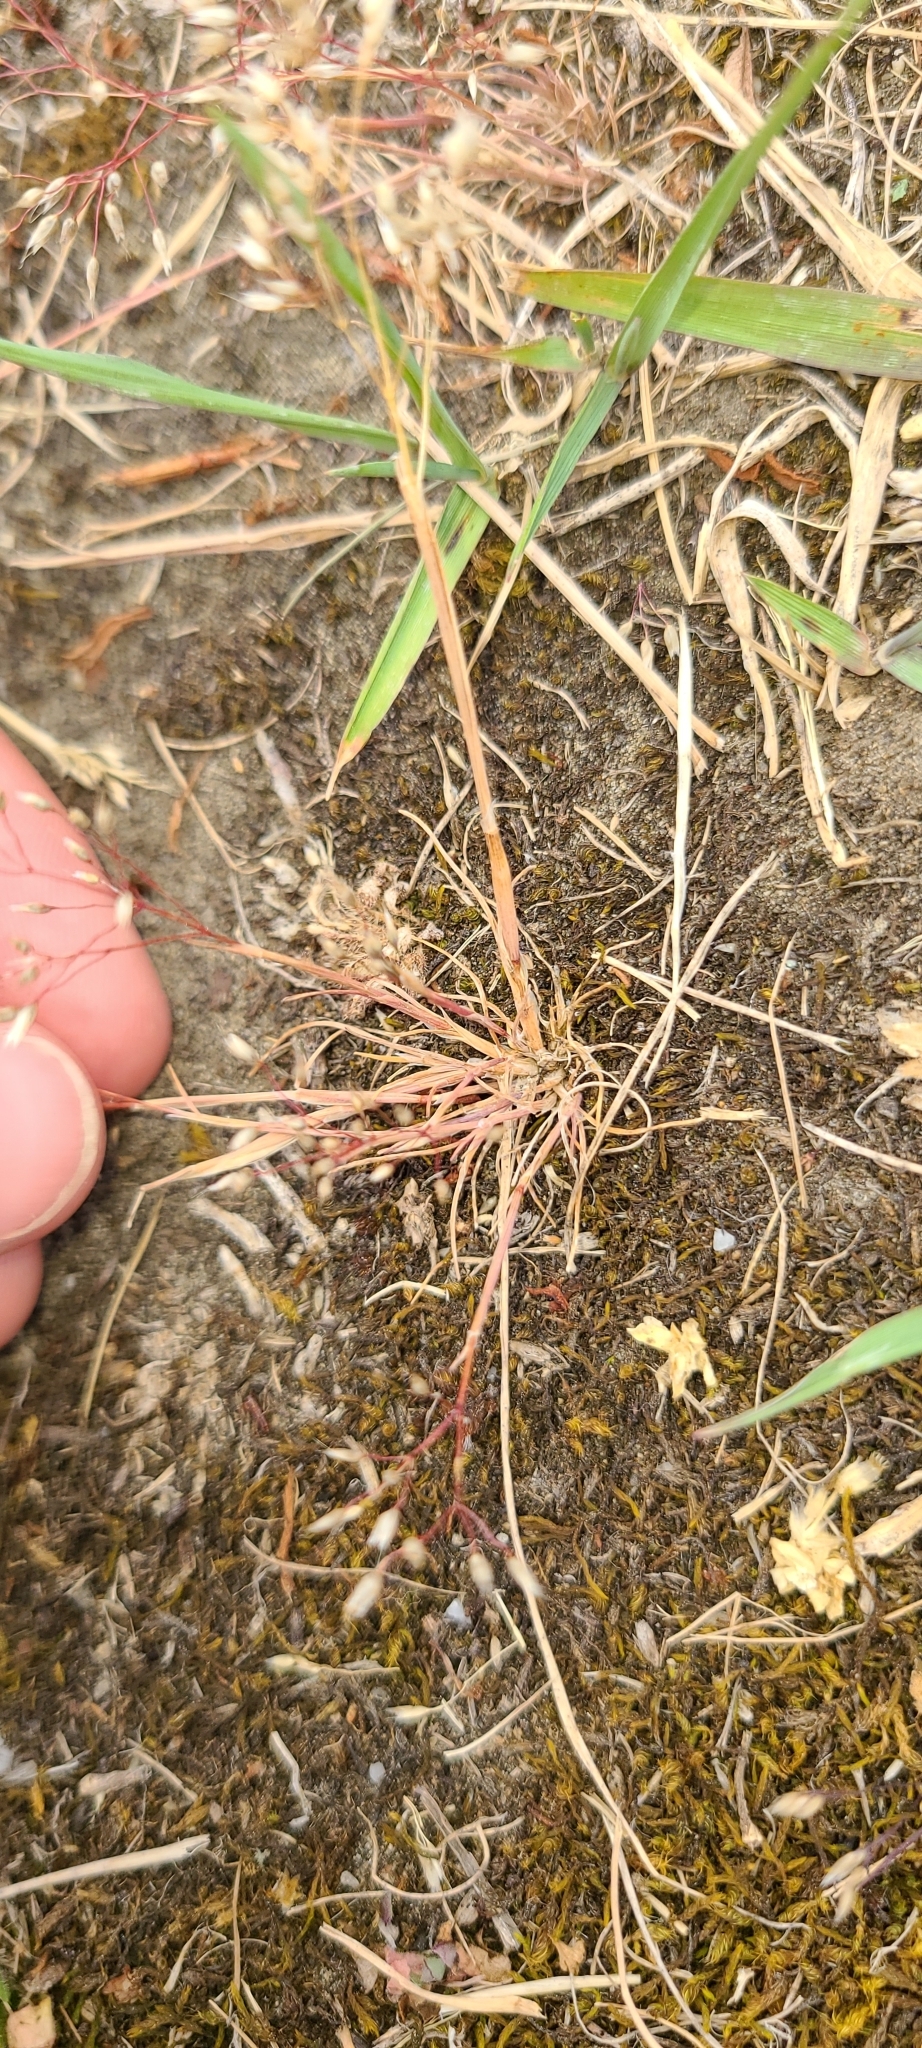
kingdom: Plantae
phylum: Tracheophyta
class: Liliopsida
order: Poales
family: Poaceae
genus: Aira
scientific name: Aira caryophyllea
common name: Silver hairgrass
